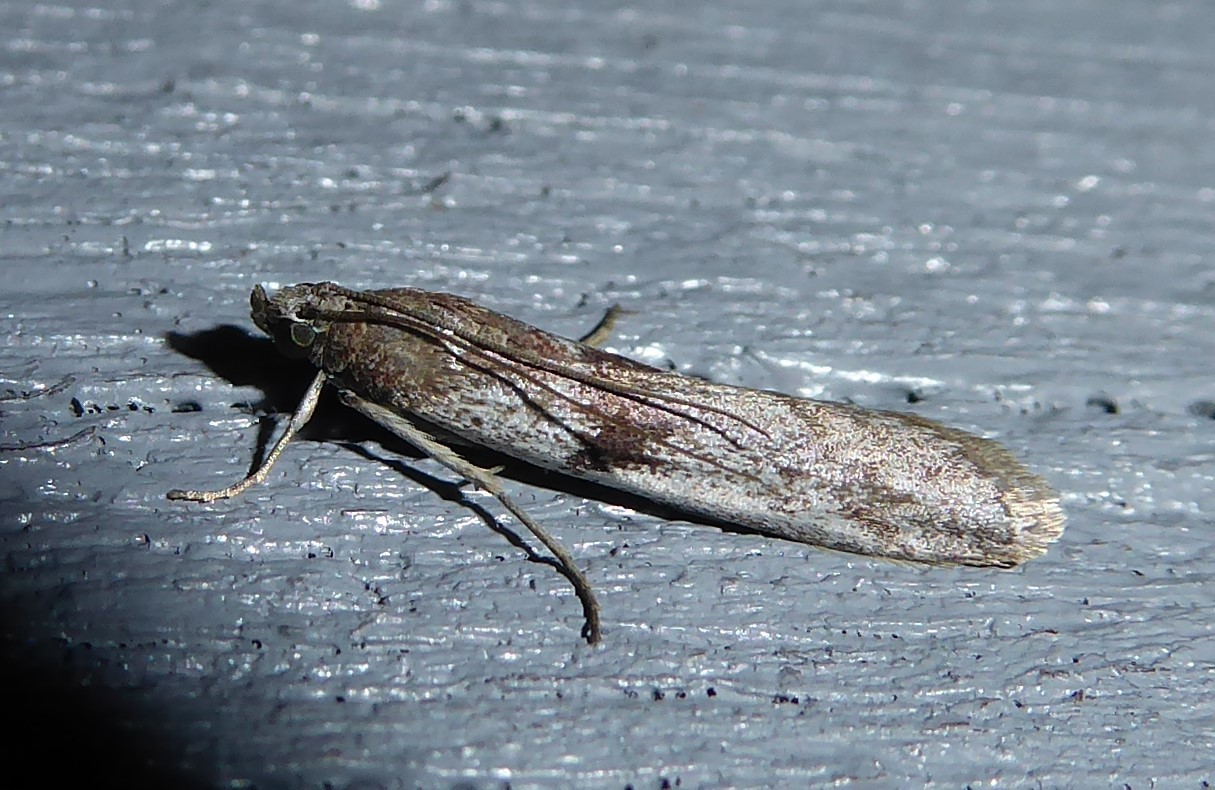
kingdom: Animalia
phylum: Arthropoda
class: Insecta
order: Lepidoptera
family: Pyralidae
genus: Patagoniodes
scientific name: Patagoniodes farinaria
